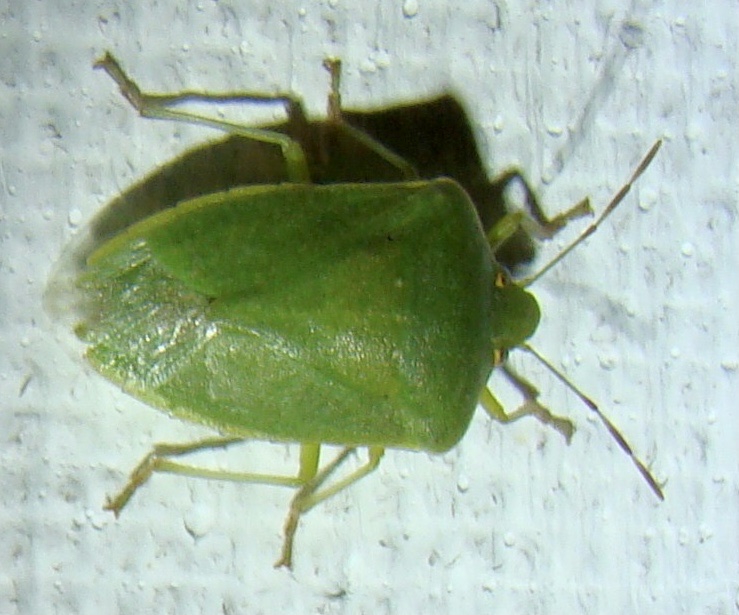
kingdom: Animalia
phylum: Arthropoda
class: Insecta
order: Hemiptera
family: Pentatomidae
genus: Nezara
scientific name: Nezara viridula
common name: Southern green stink bug
